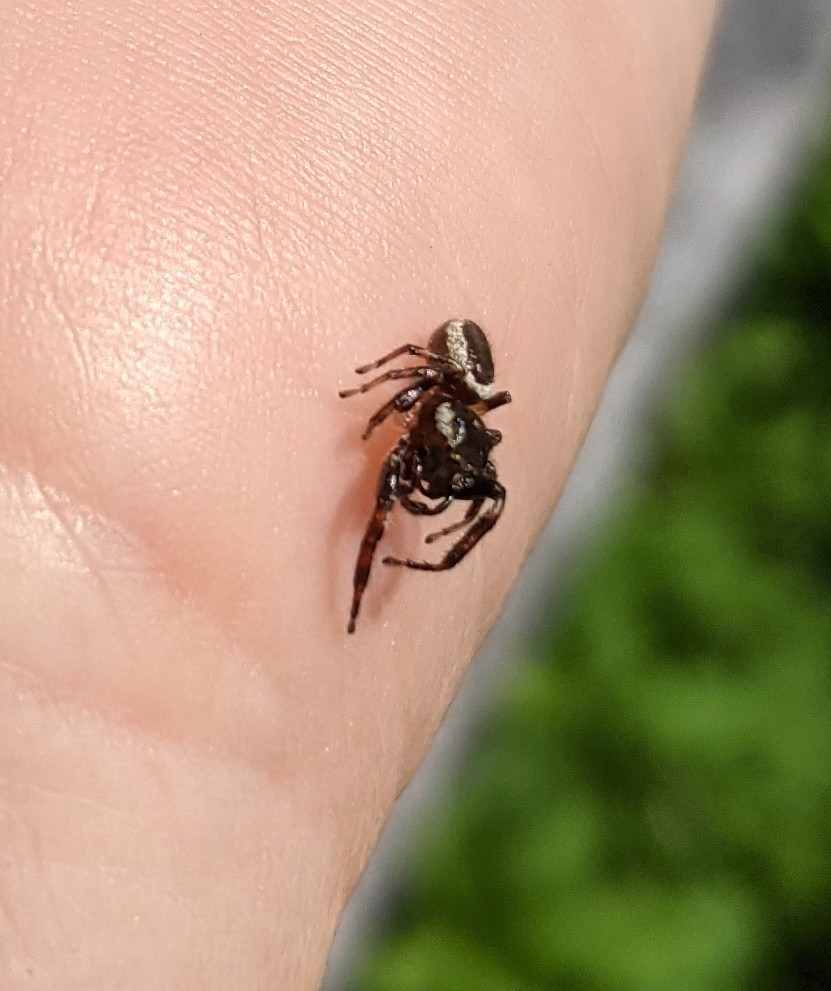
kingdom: Animalia
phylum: Arthropoda
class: Arachnida
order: Araneae
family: Salticidae
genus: Eris
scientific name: Eris militaris
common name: Bronze jumper
